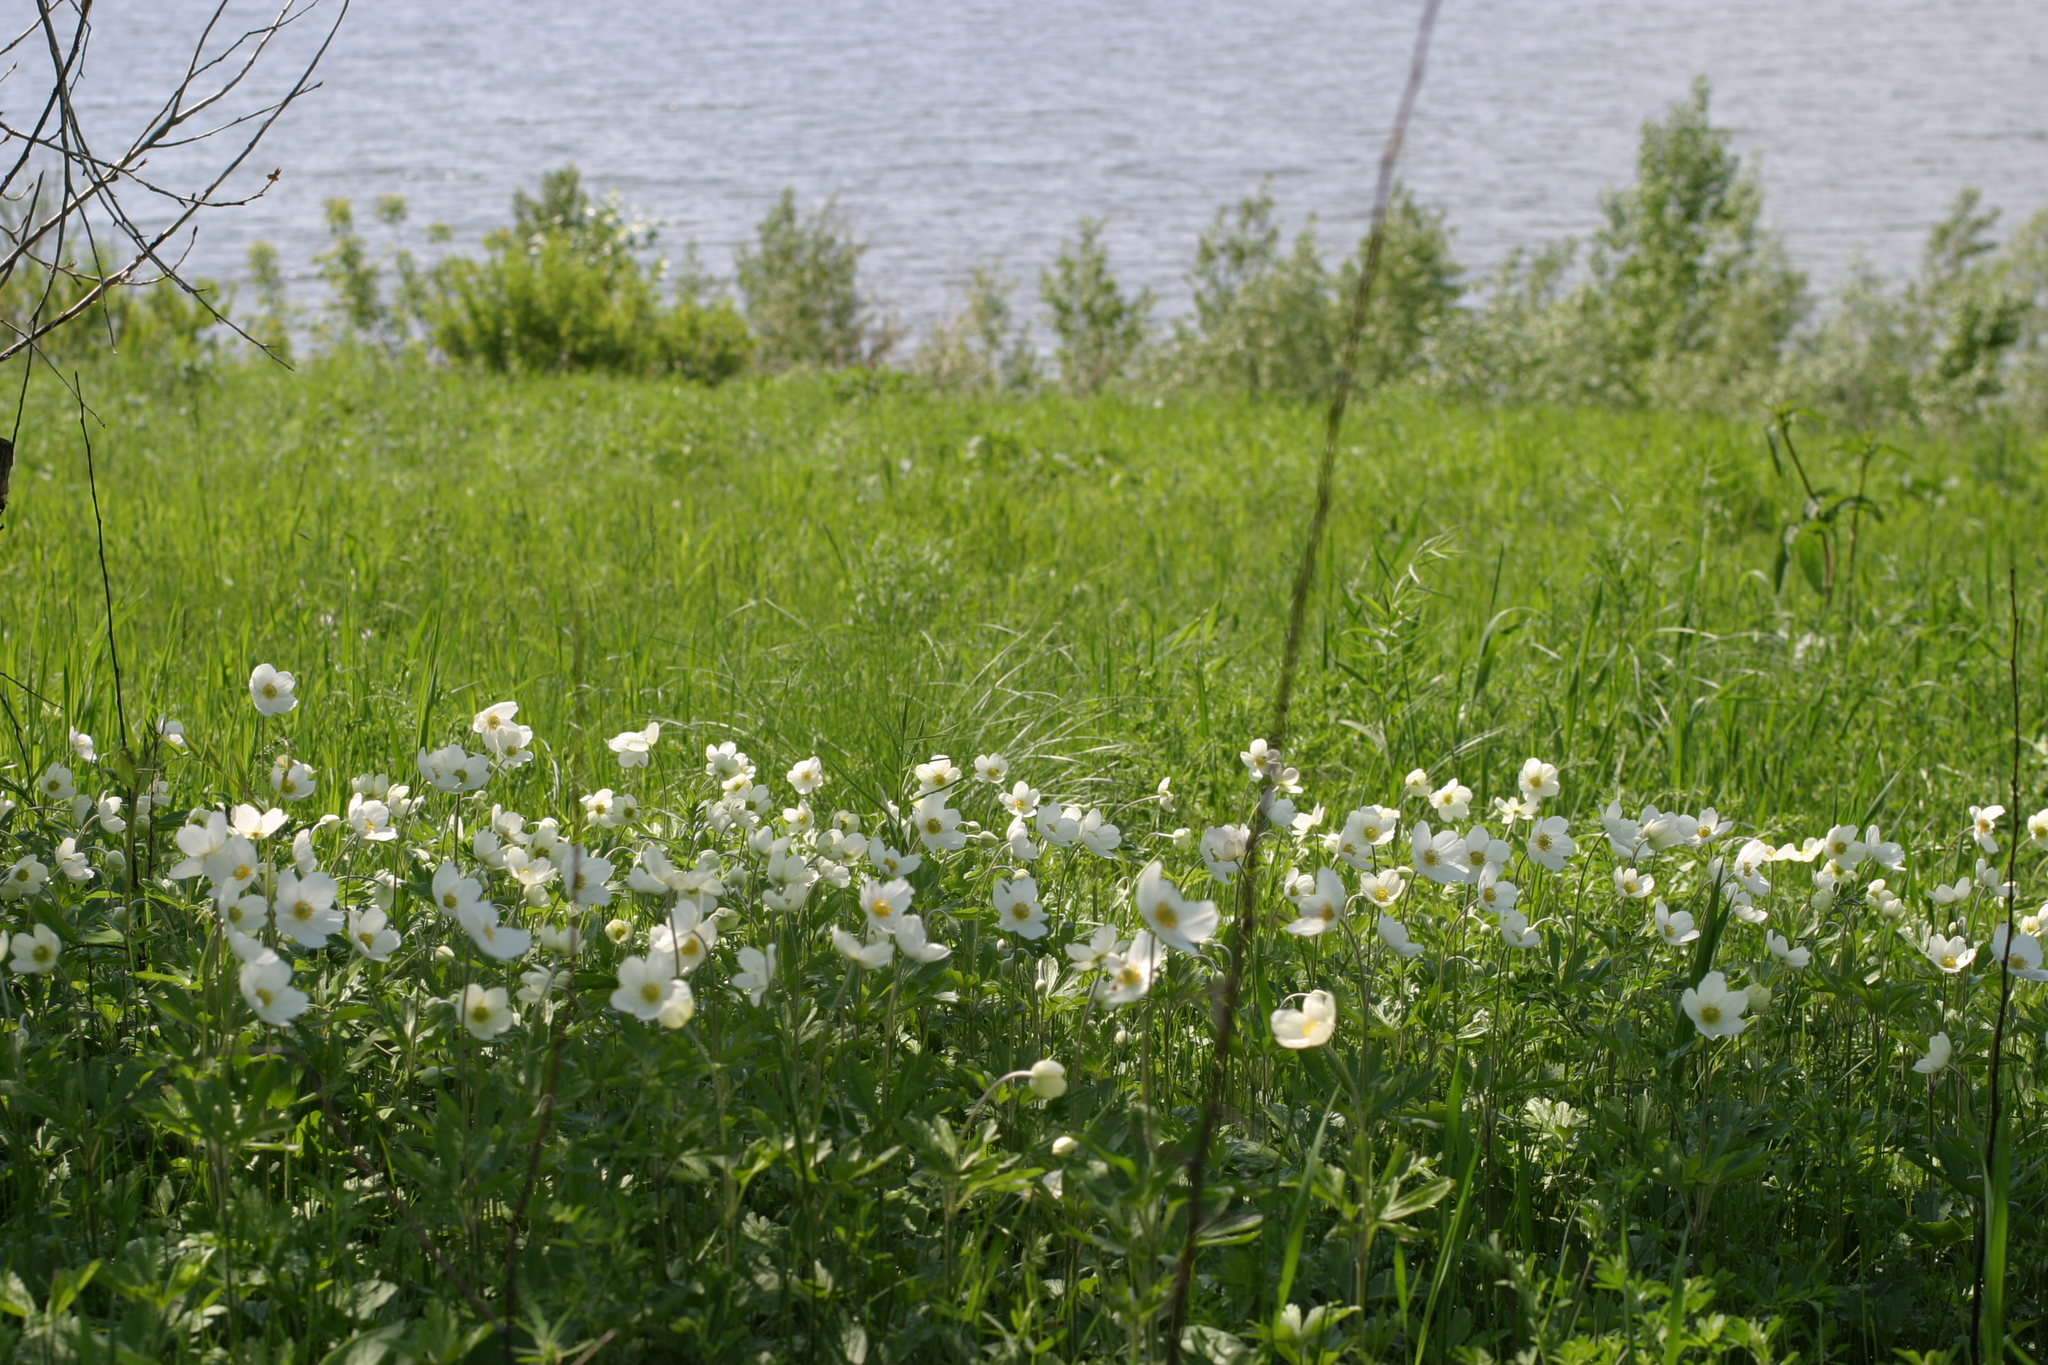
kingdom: Plantae
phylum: Tracheophyta
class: Magnoliopsida
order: Ranunculales
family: Ranunculaceae
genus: Anemone
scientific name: Anemone sylvestris
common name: Snowdrop anemone
